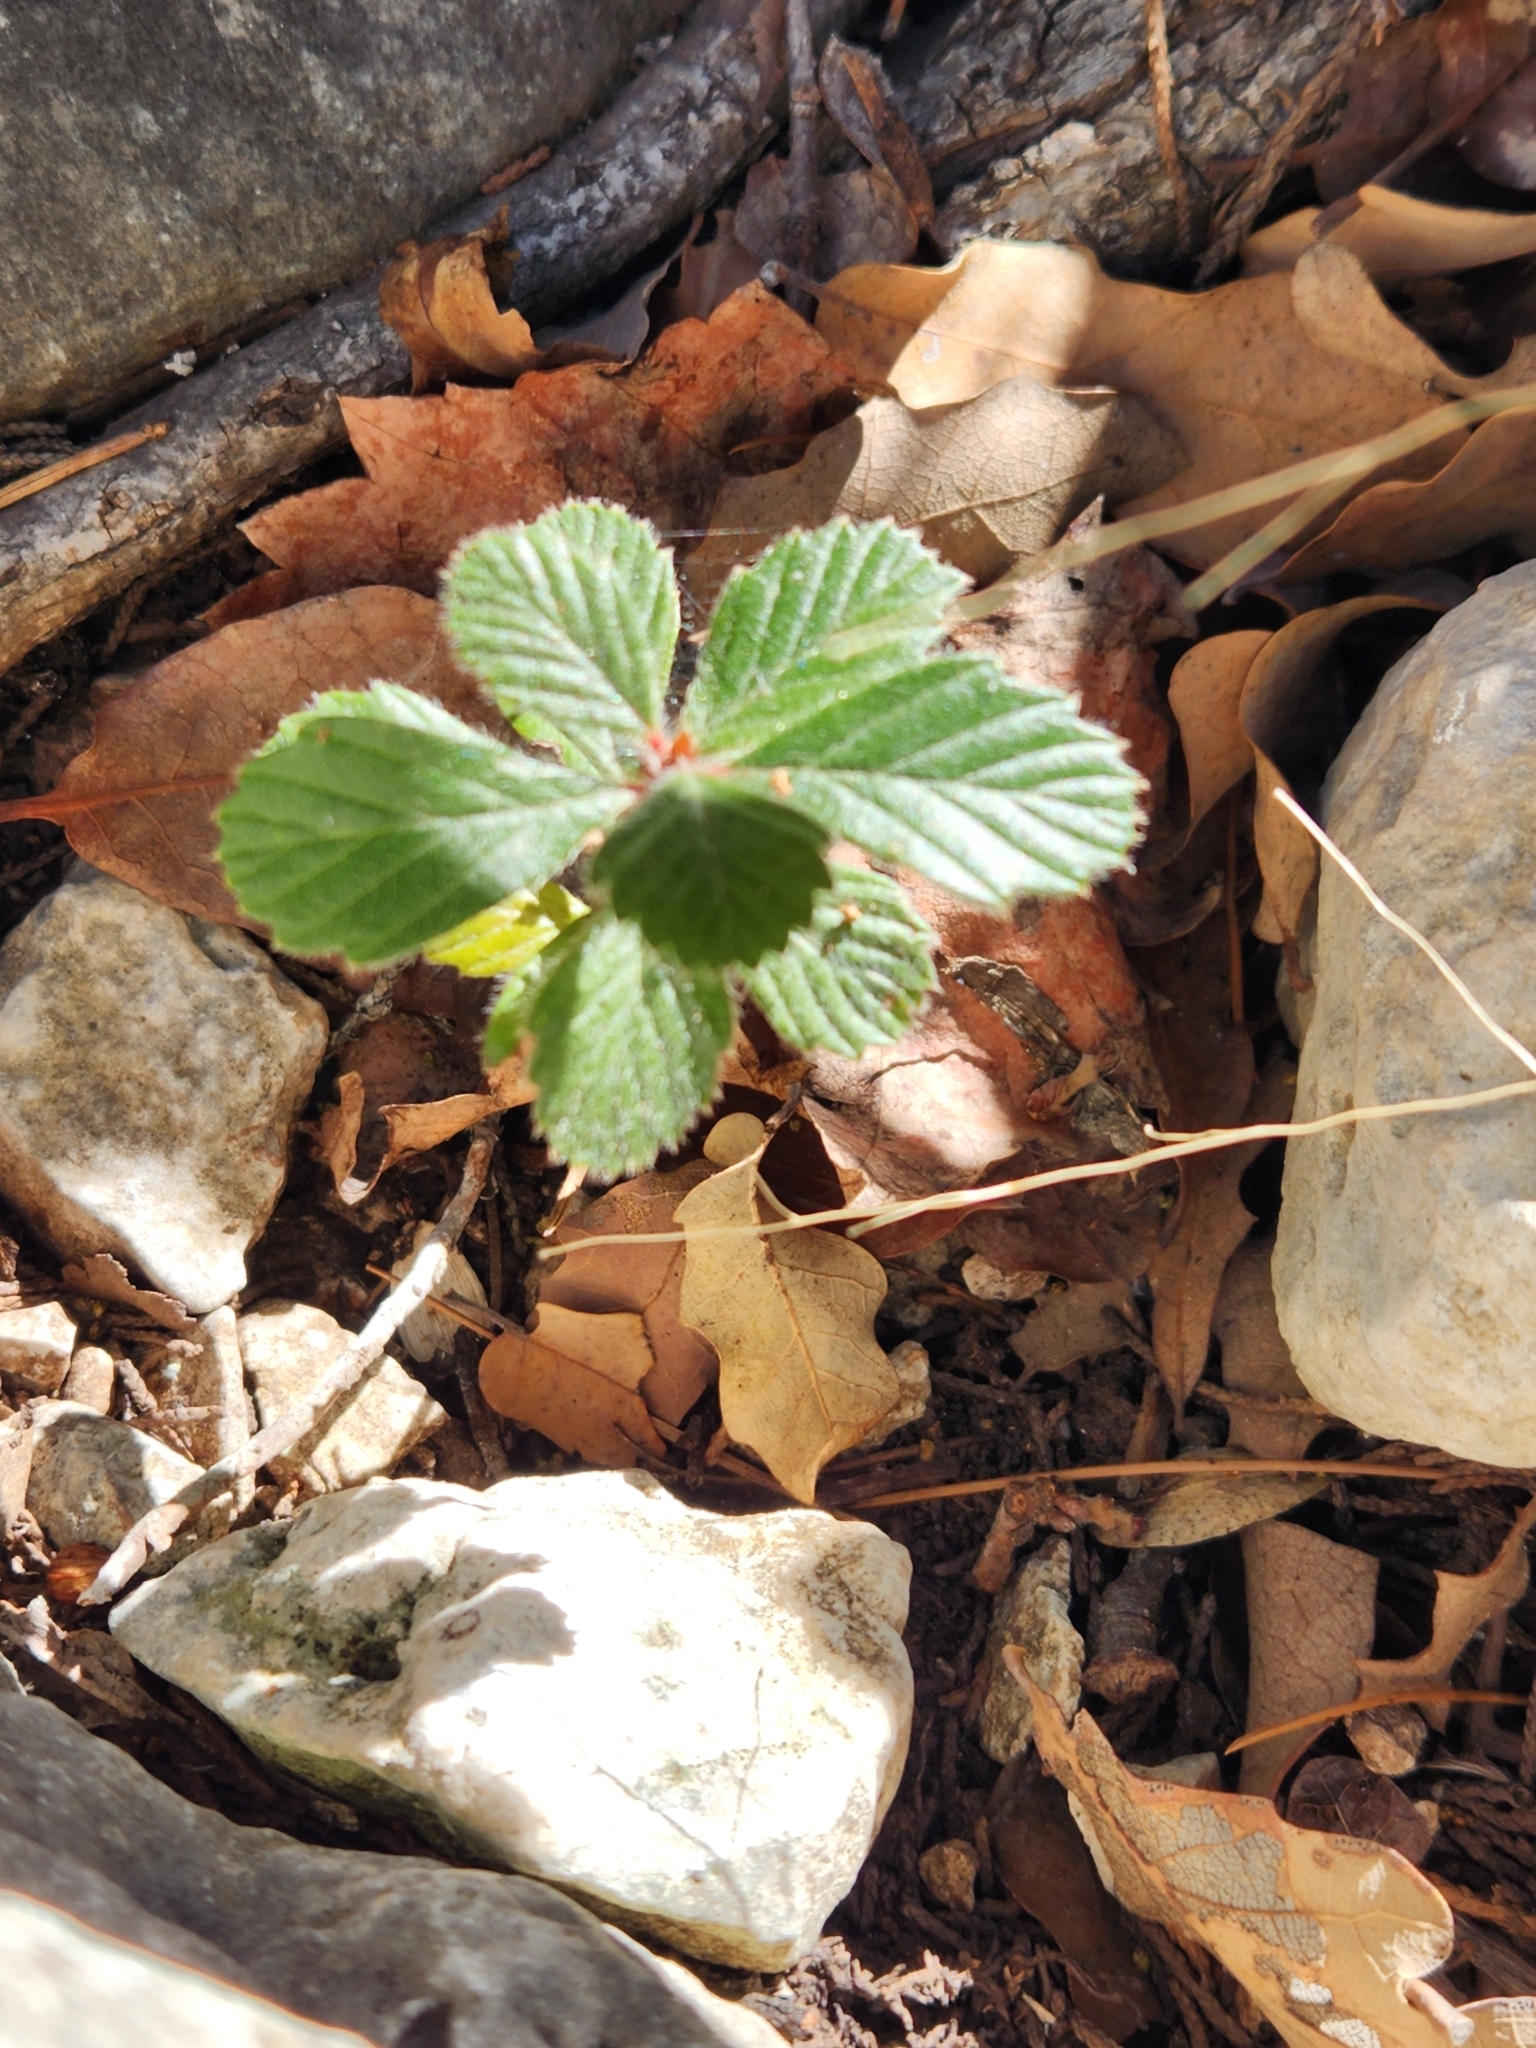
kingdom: Plantae
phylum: Tracheophyta
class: Magnoliopsida
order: Rosales
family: Rosaceae
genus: Cercocarpus
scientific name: Cercocarpus montanus
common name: Alder-leaf cercocarpus
